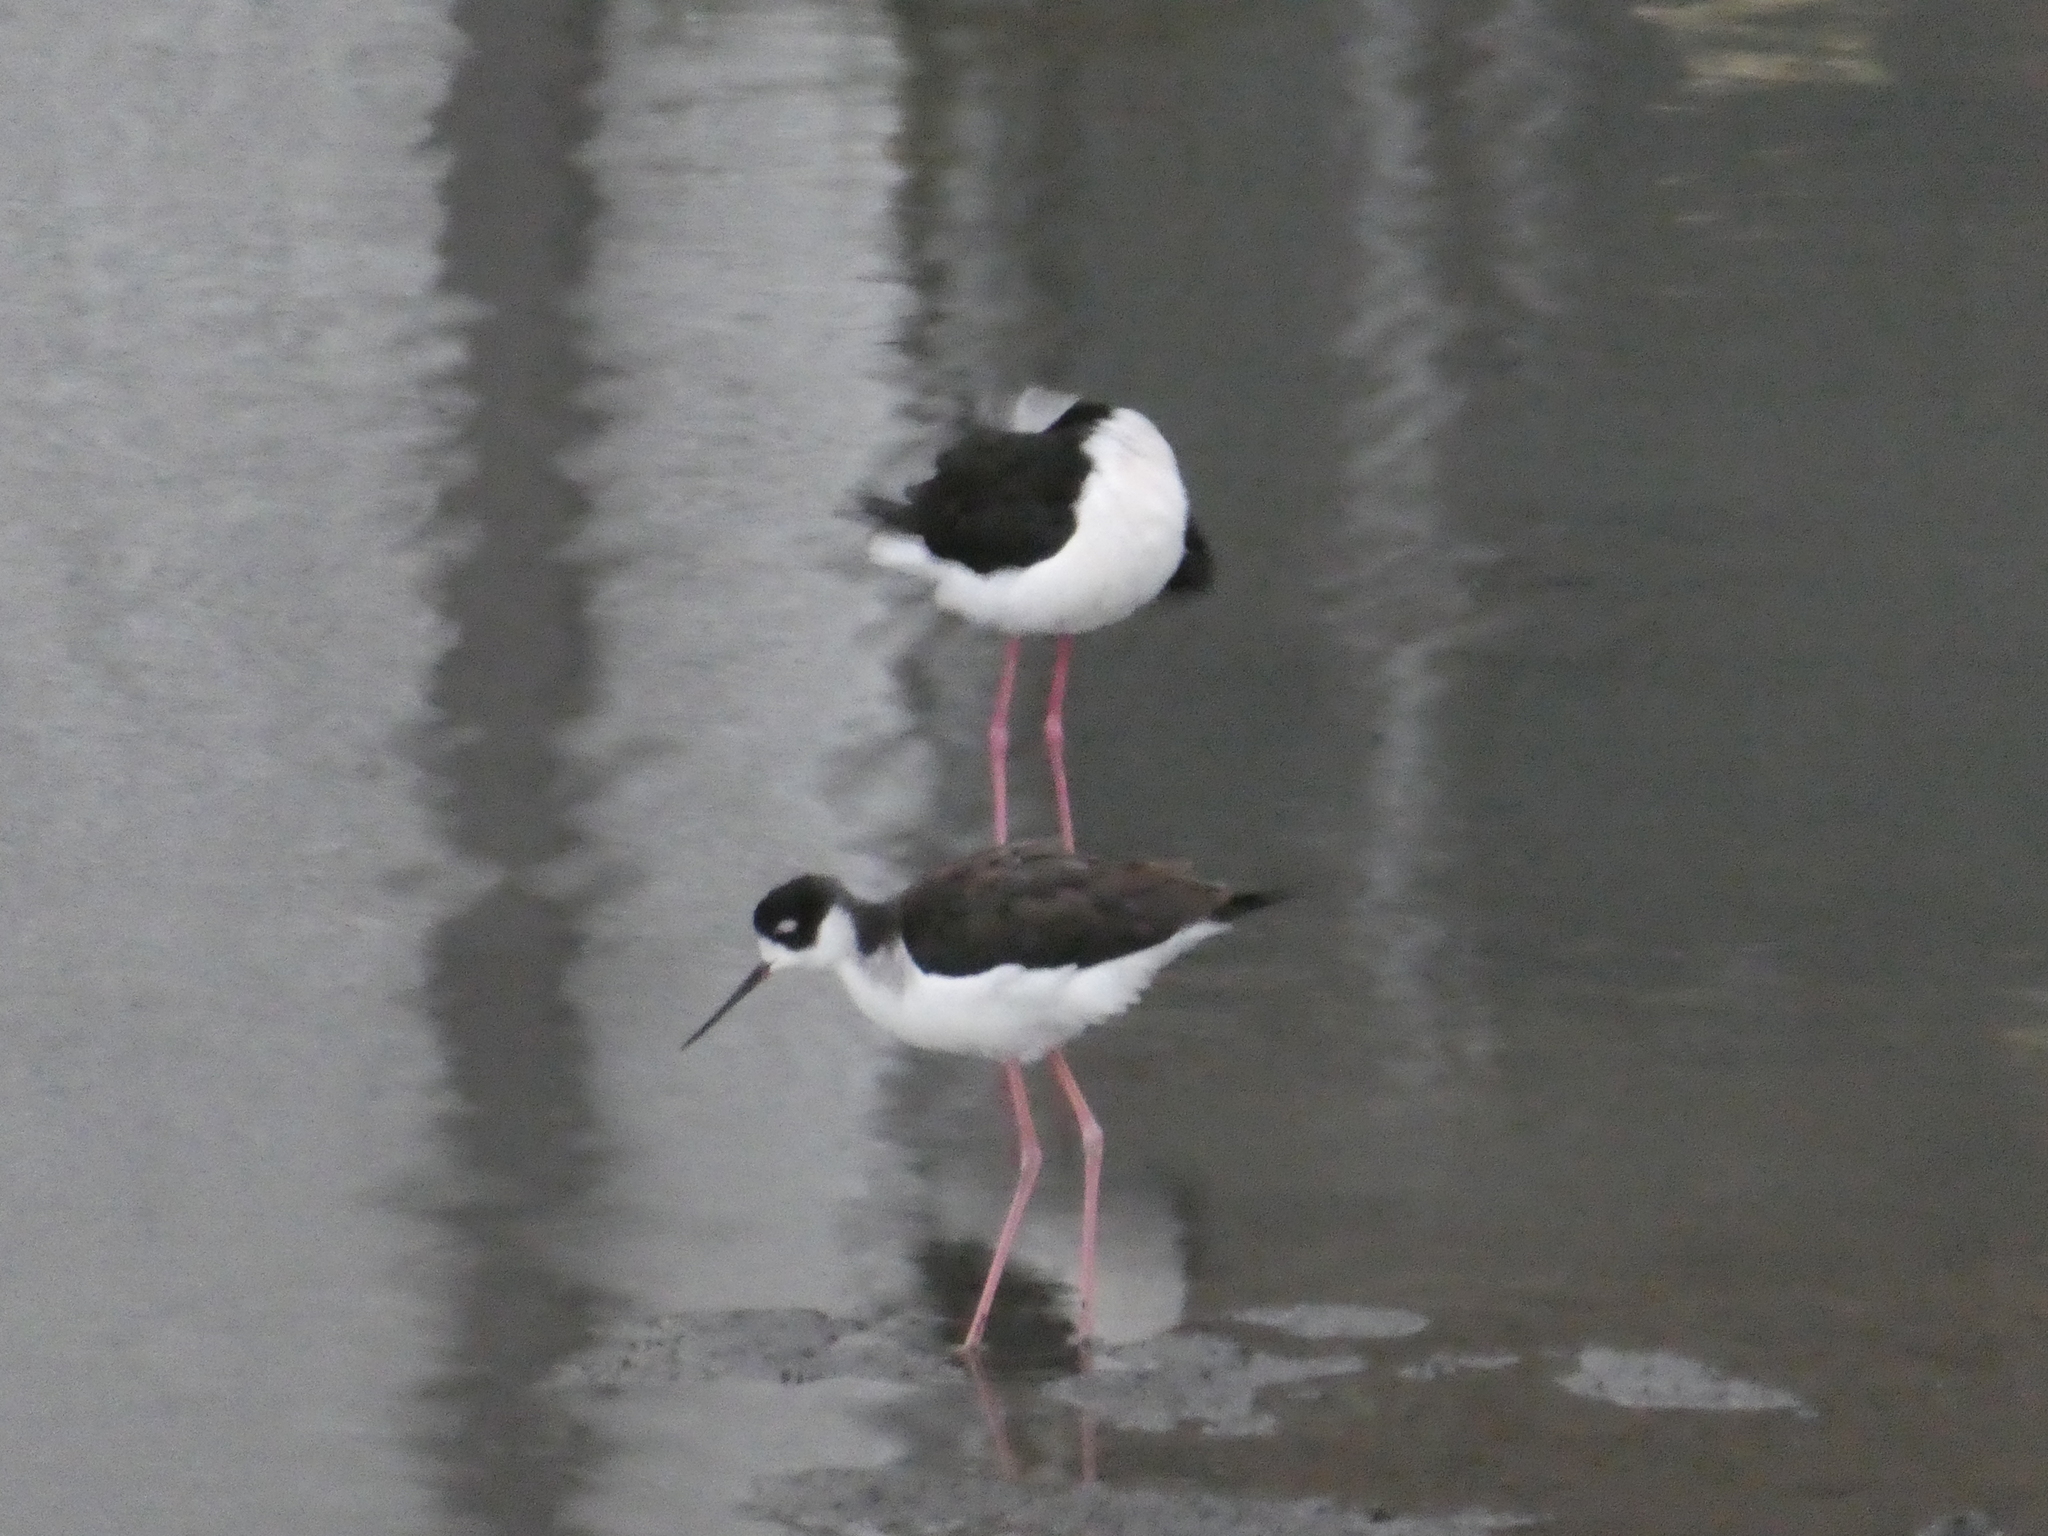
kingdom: Animalia
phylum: Chordata
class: Aves
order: Charadriiformes
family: Recurvirostridae
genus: Himantopus
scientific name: Himantopus mexicanus
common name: Black-necked stilt
